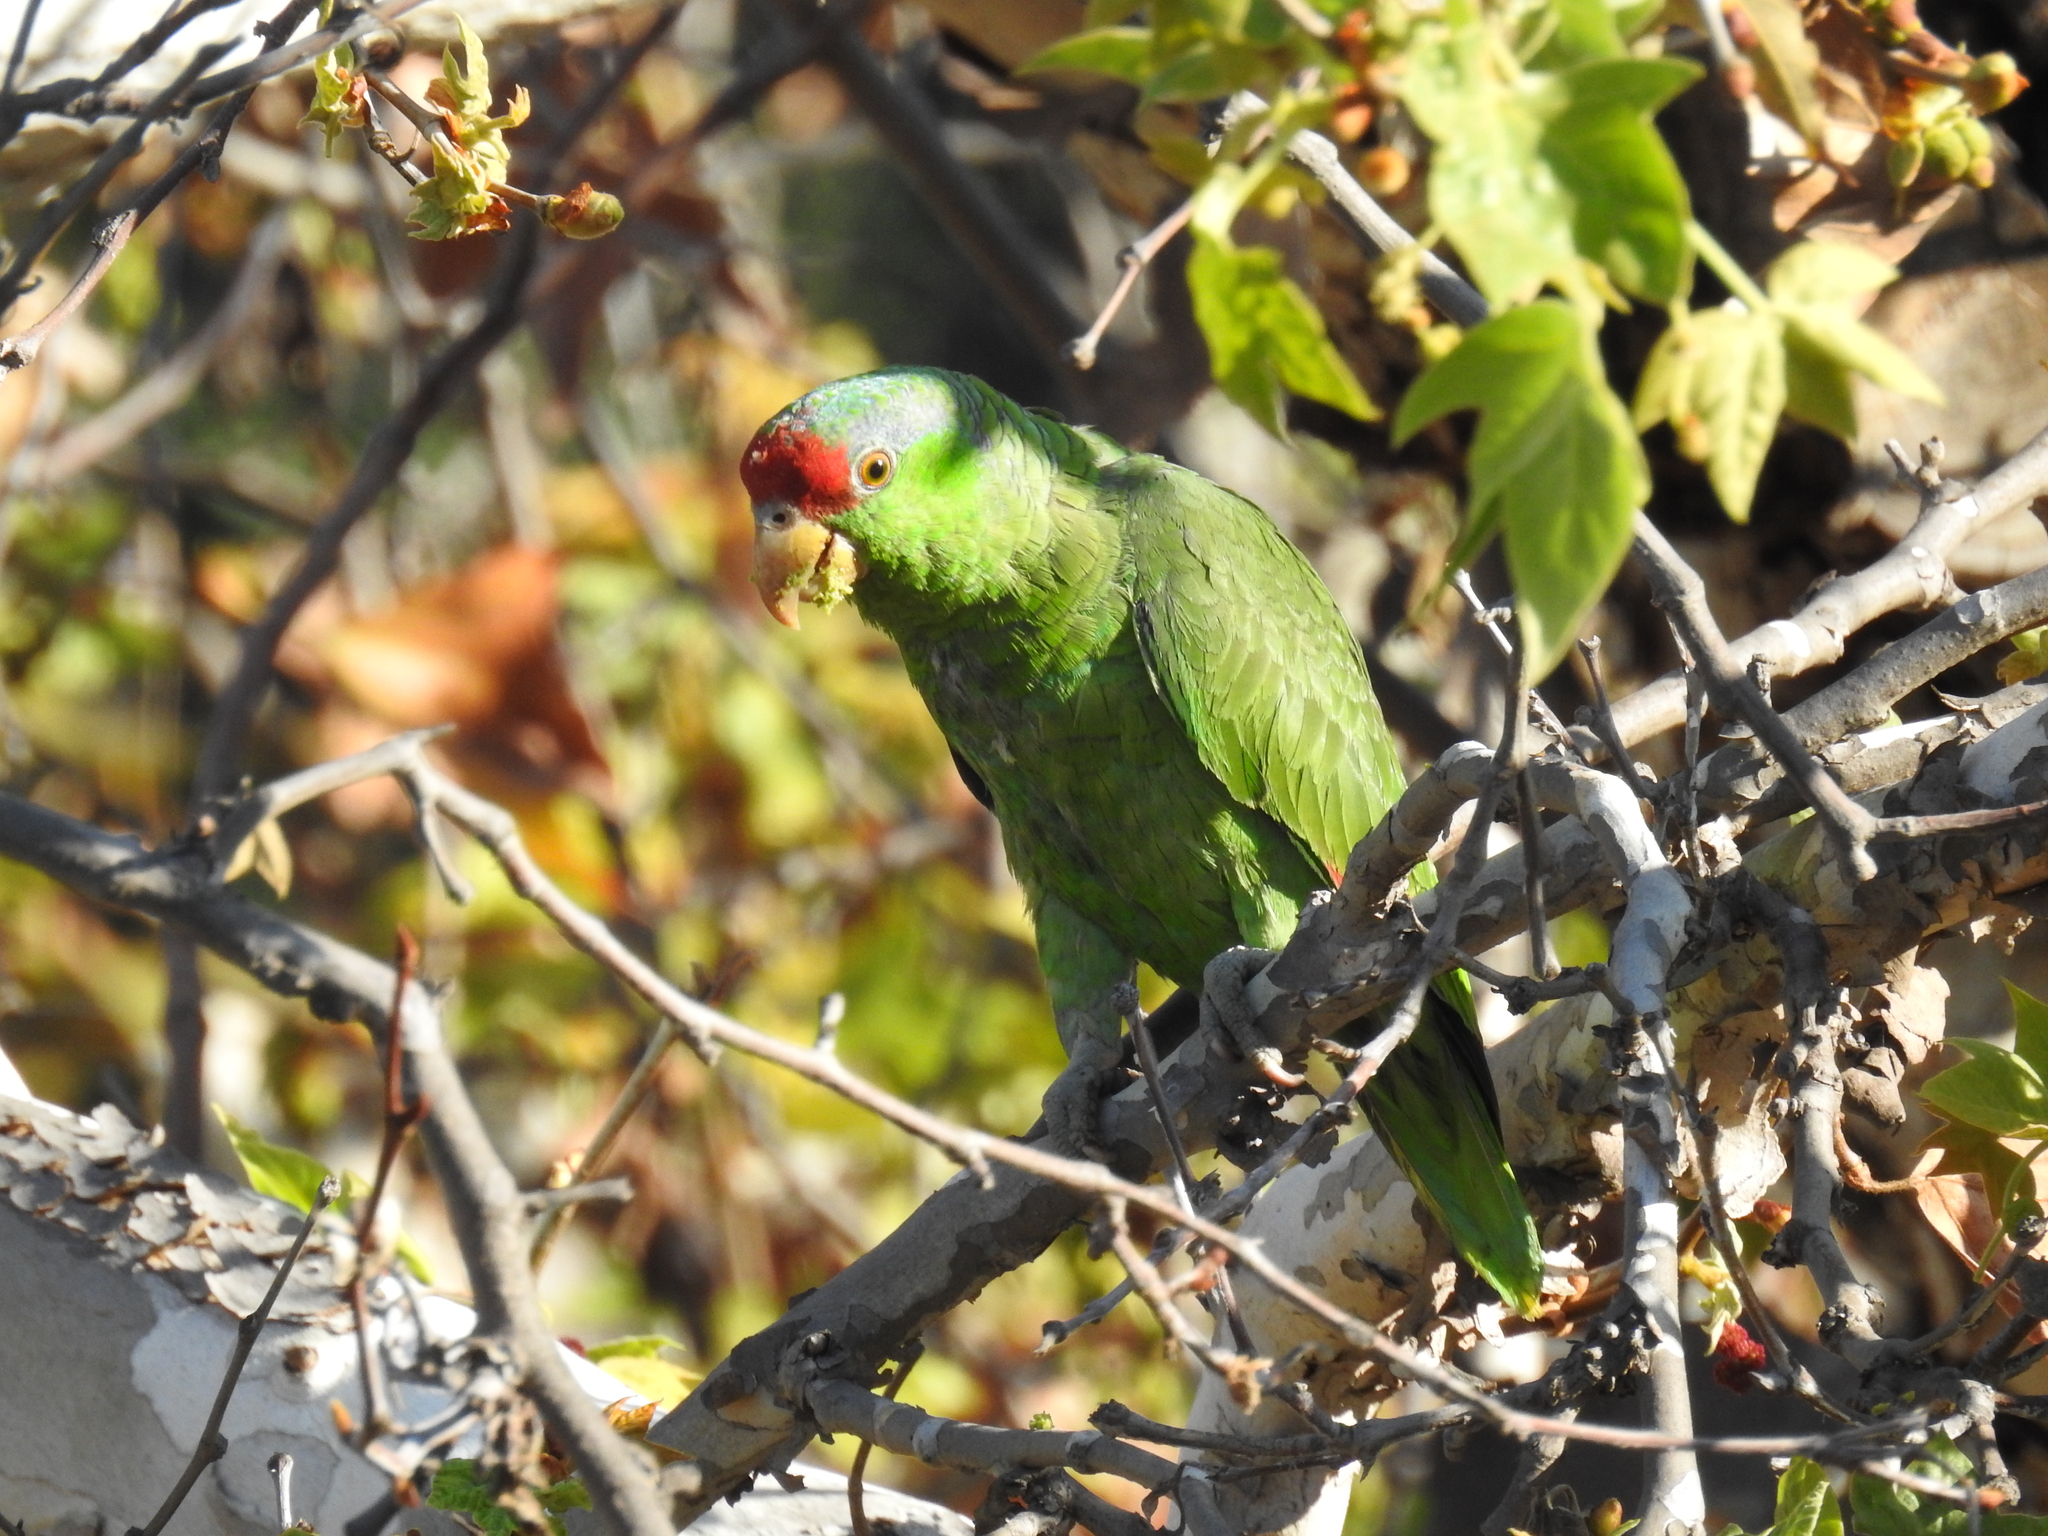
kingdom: Animalia
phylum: Chordata
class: Aves
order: Psittaciformes
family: Psittacidae
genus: Amazona
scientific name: Amazona viridigenalis
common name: Red-crowned amazon
